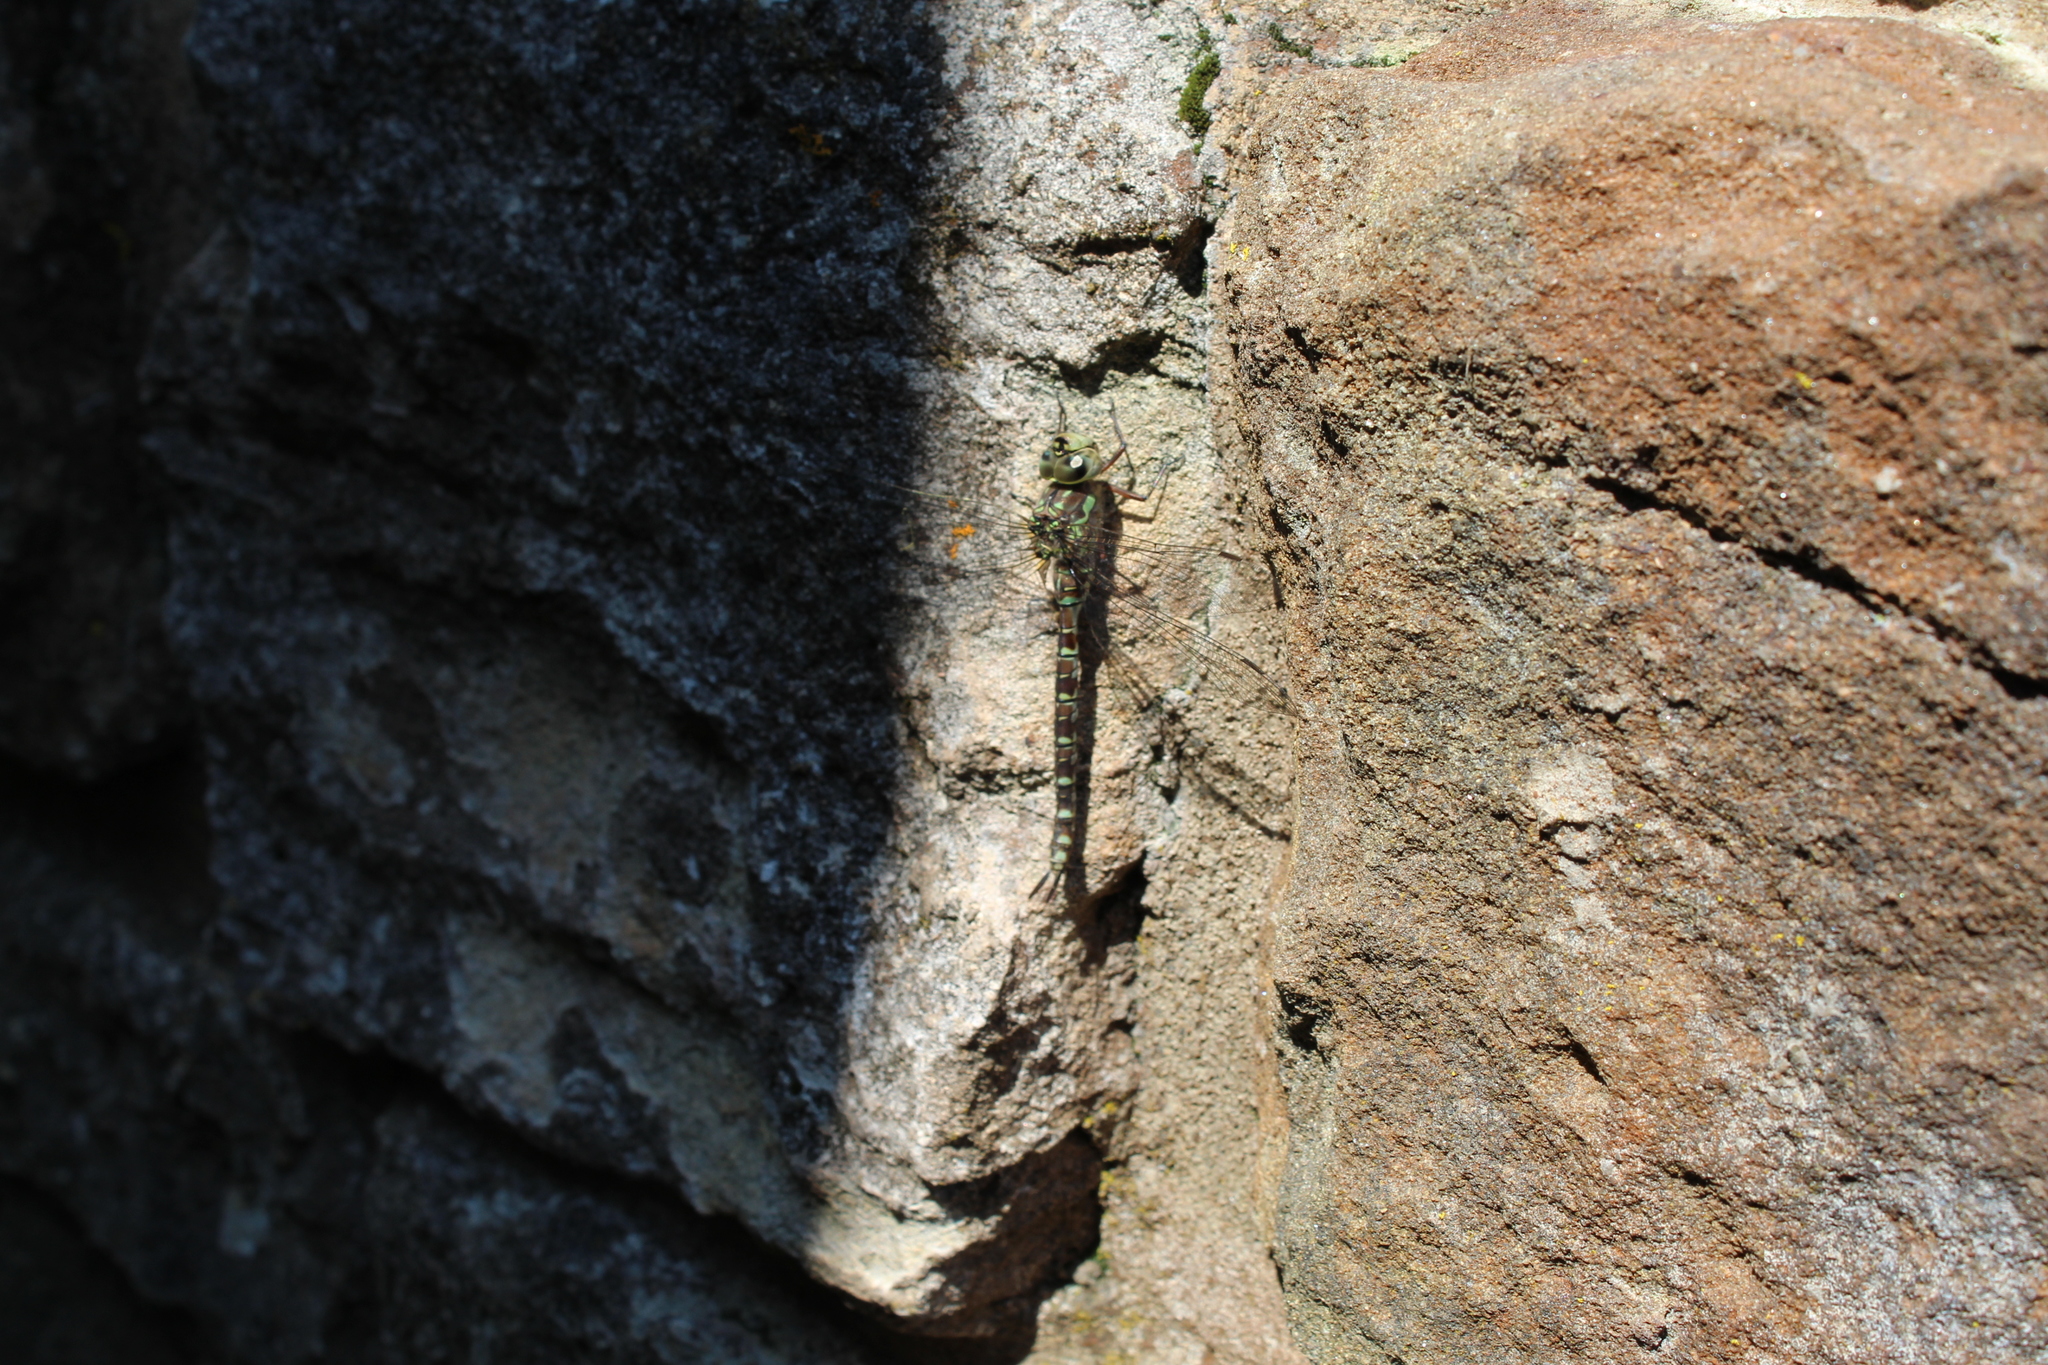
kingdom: Animalia
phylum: Arthropoda
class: Insecta
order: Odonata
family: Aeshnidae
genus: Aeshna
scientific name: Aeshna canadensis
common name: Canada darner
